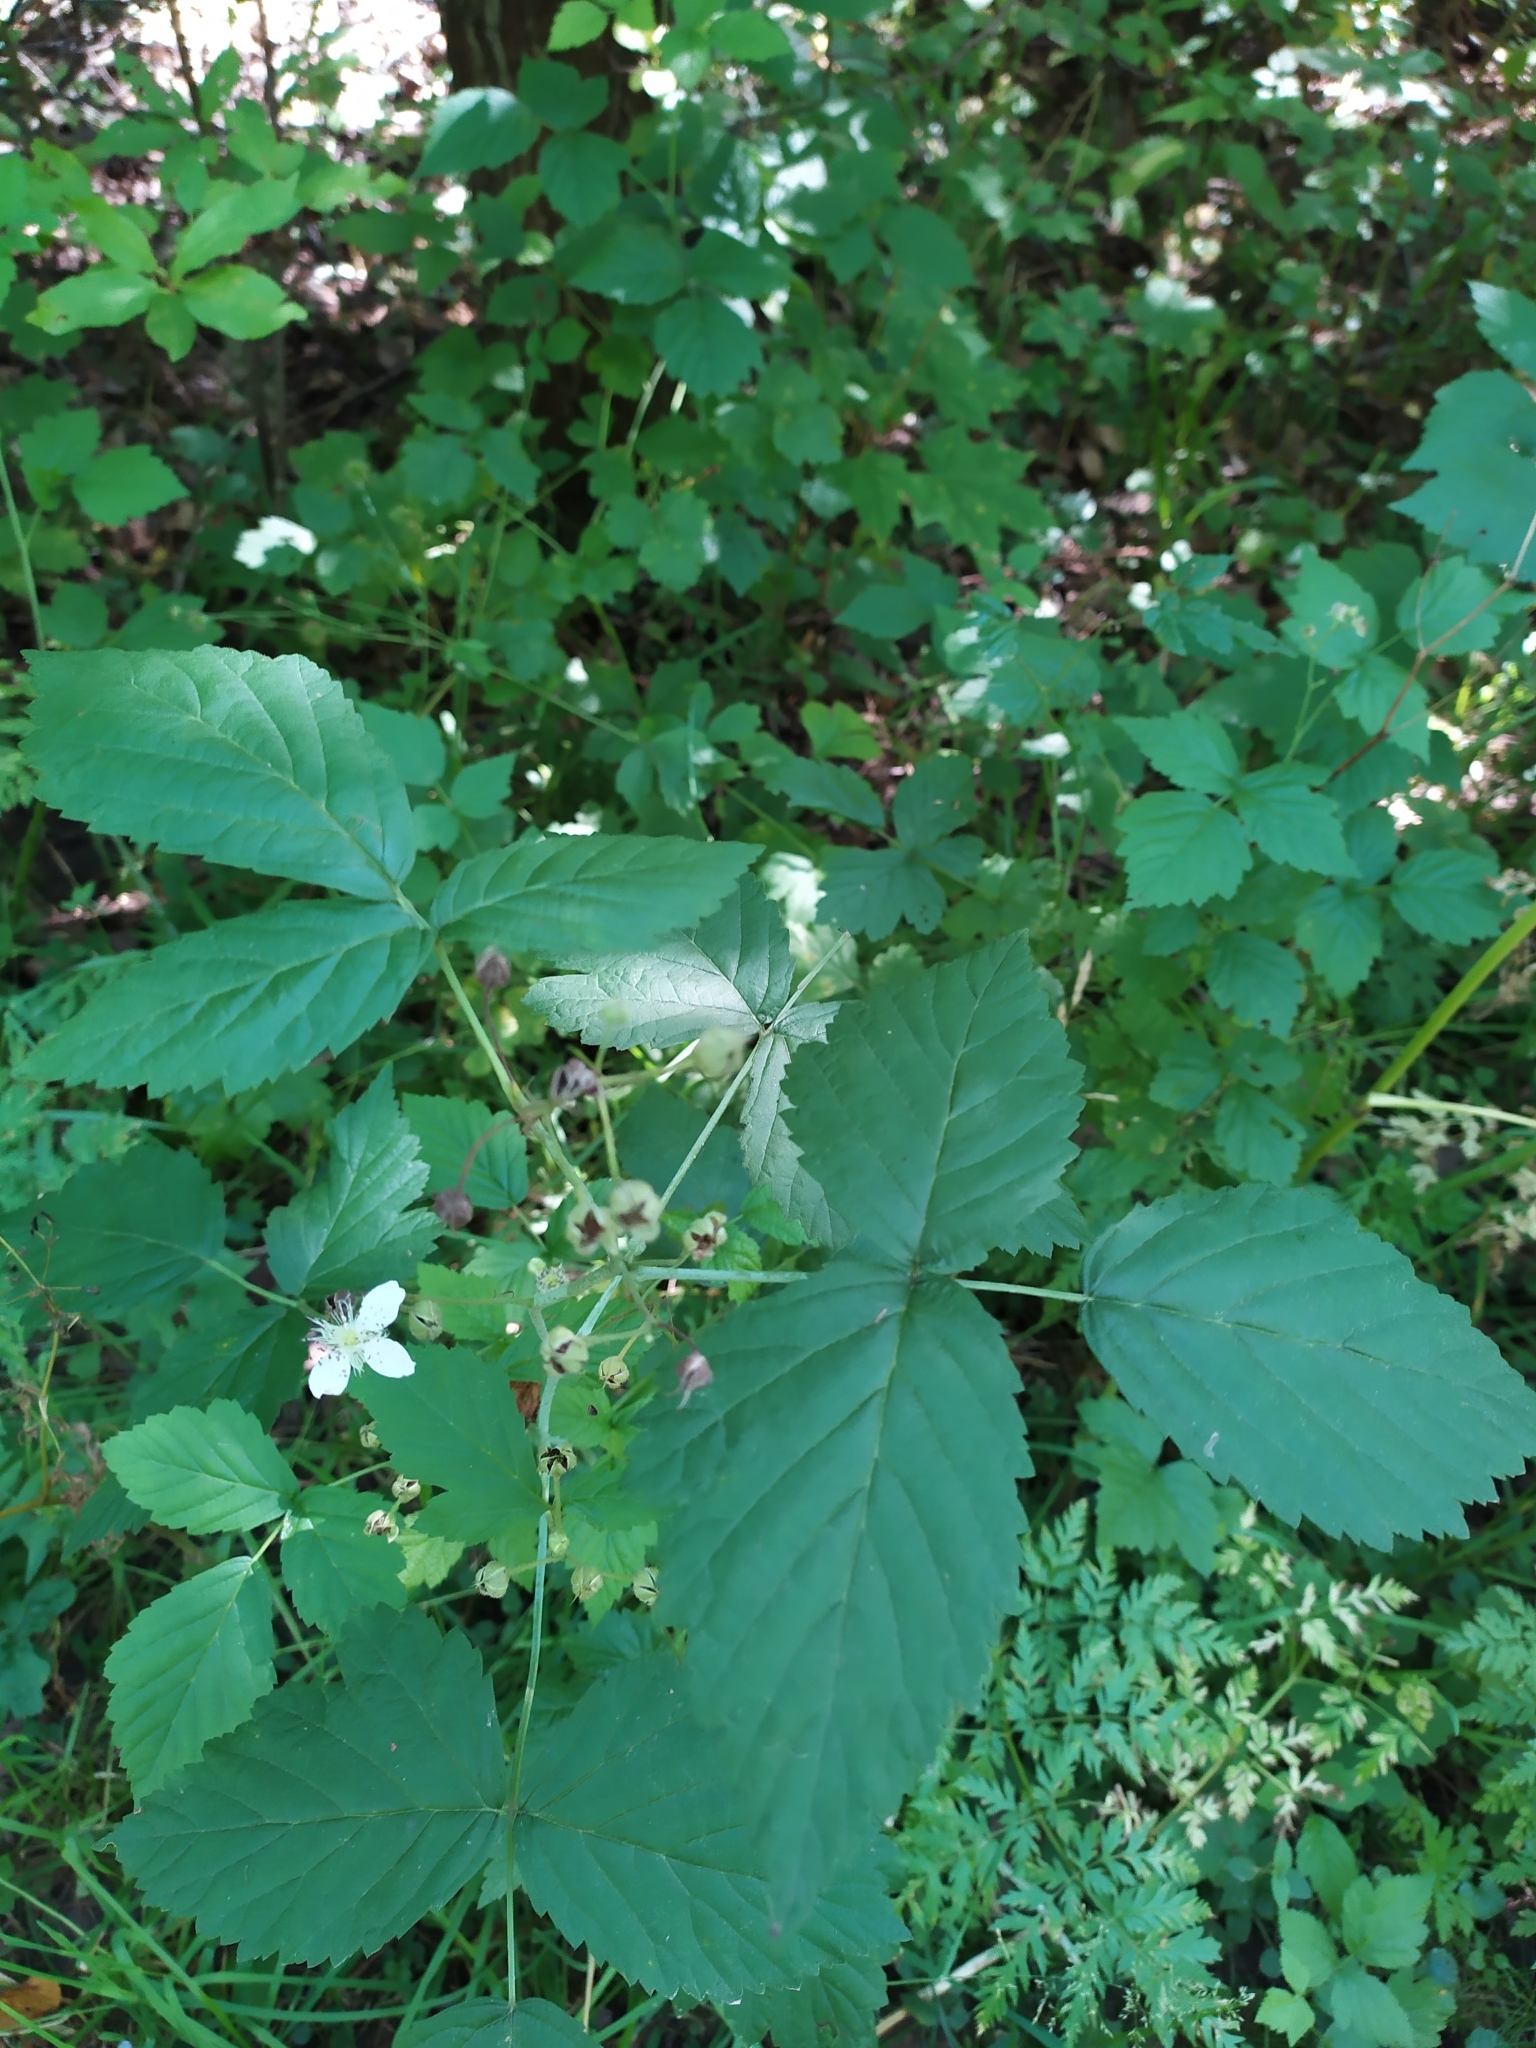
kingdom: Plantae
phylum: Tracheophyta
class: Magnoliopsida
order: Rosales
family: Rosaceae
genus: Rubus
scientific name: Rubus caesius
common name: Dewberry
